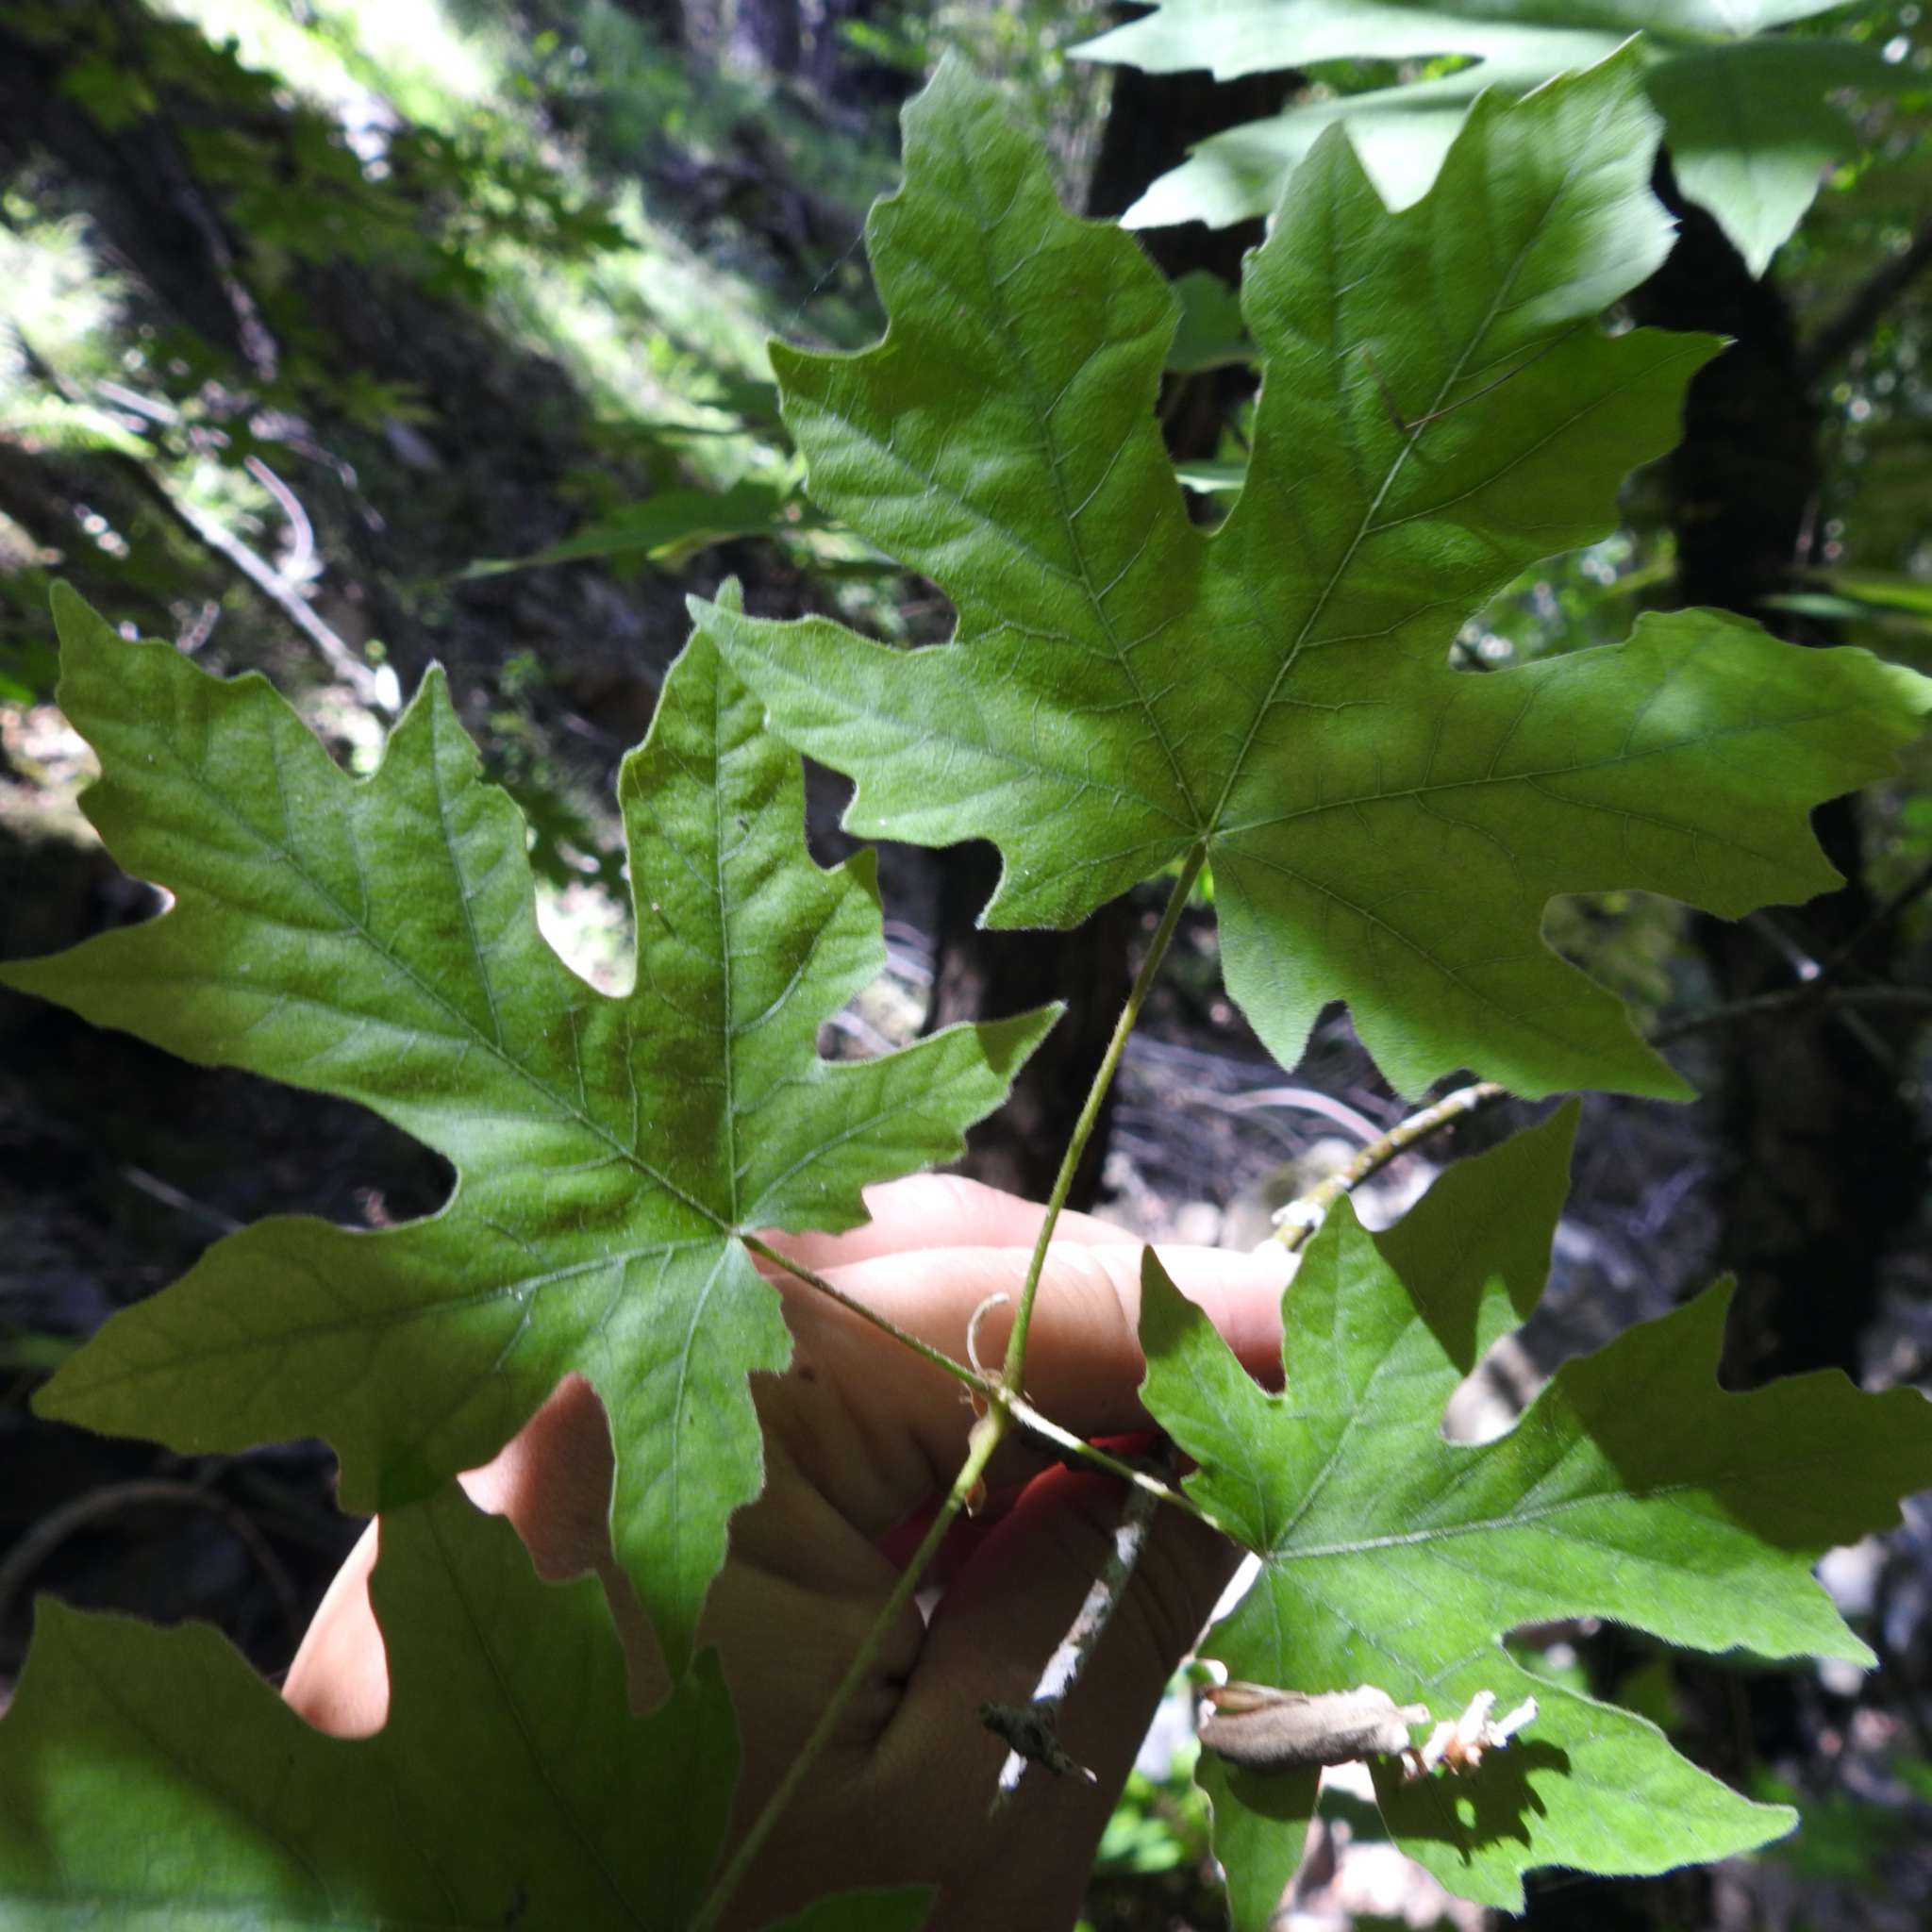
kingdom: Plantae
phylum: Tracheophyta
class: Magnoliopsida
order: Sapindales
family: Sapindaceae
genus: Acer
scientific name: Acer macrophyllum
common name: Oregon maple
